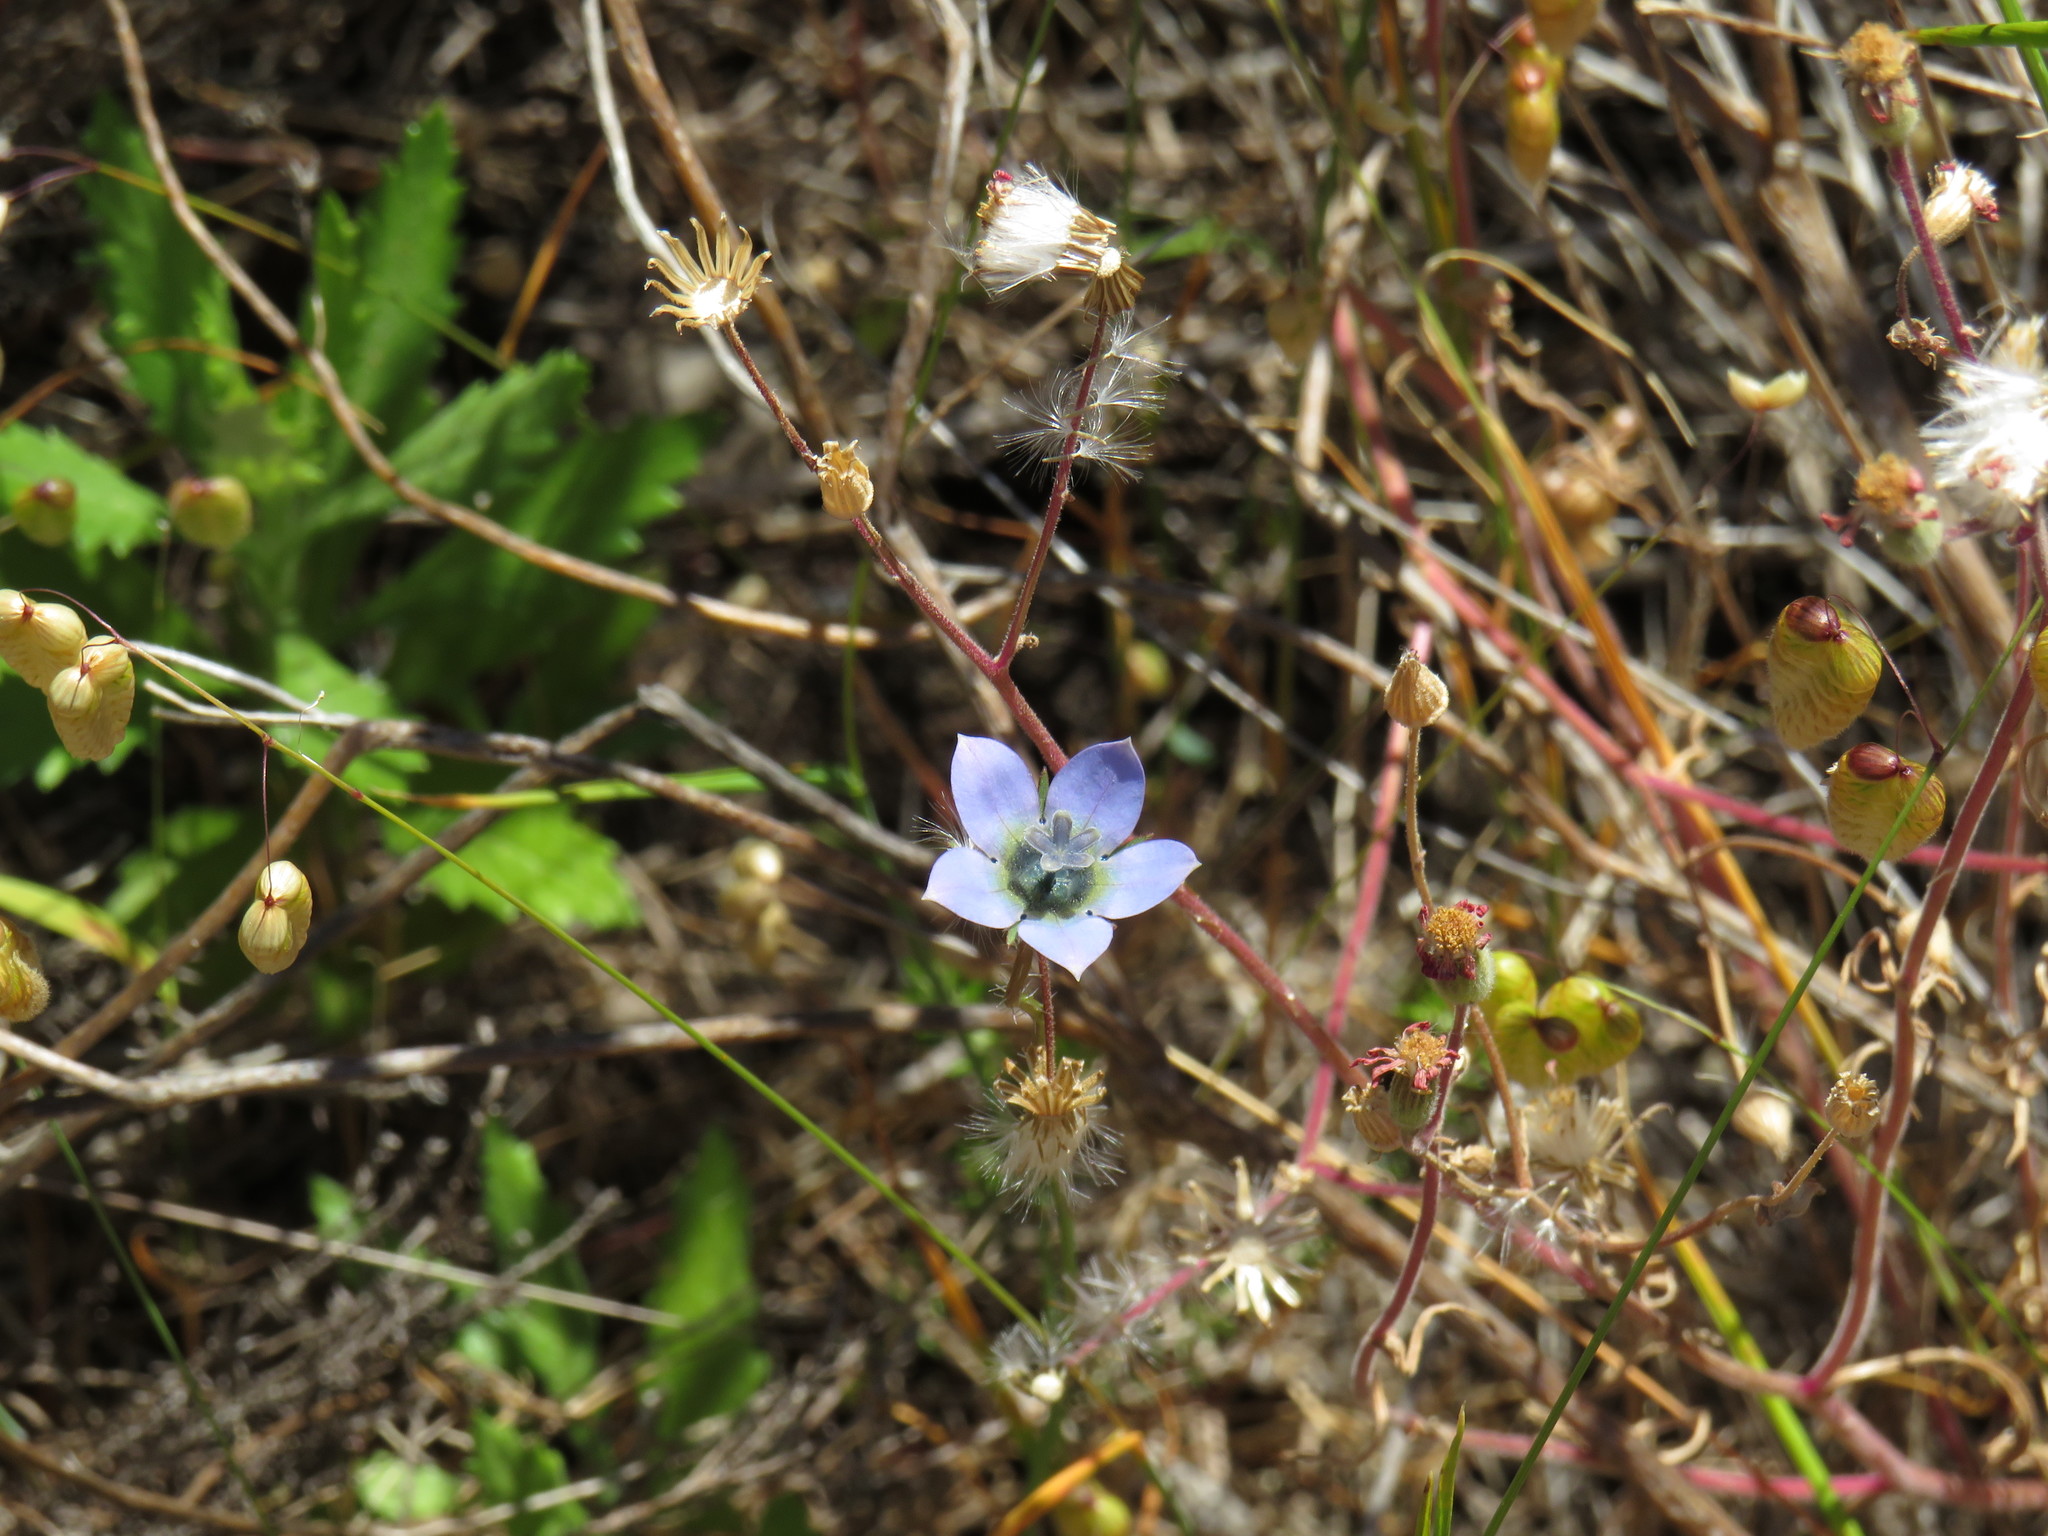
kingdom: Plantae
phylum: Tracheophyta
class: Magnoliopsida
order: Asterales
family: Campanulaceae
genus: Wahlenbergia
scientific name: Wahlenbergia capensis
